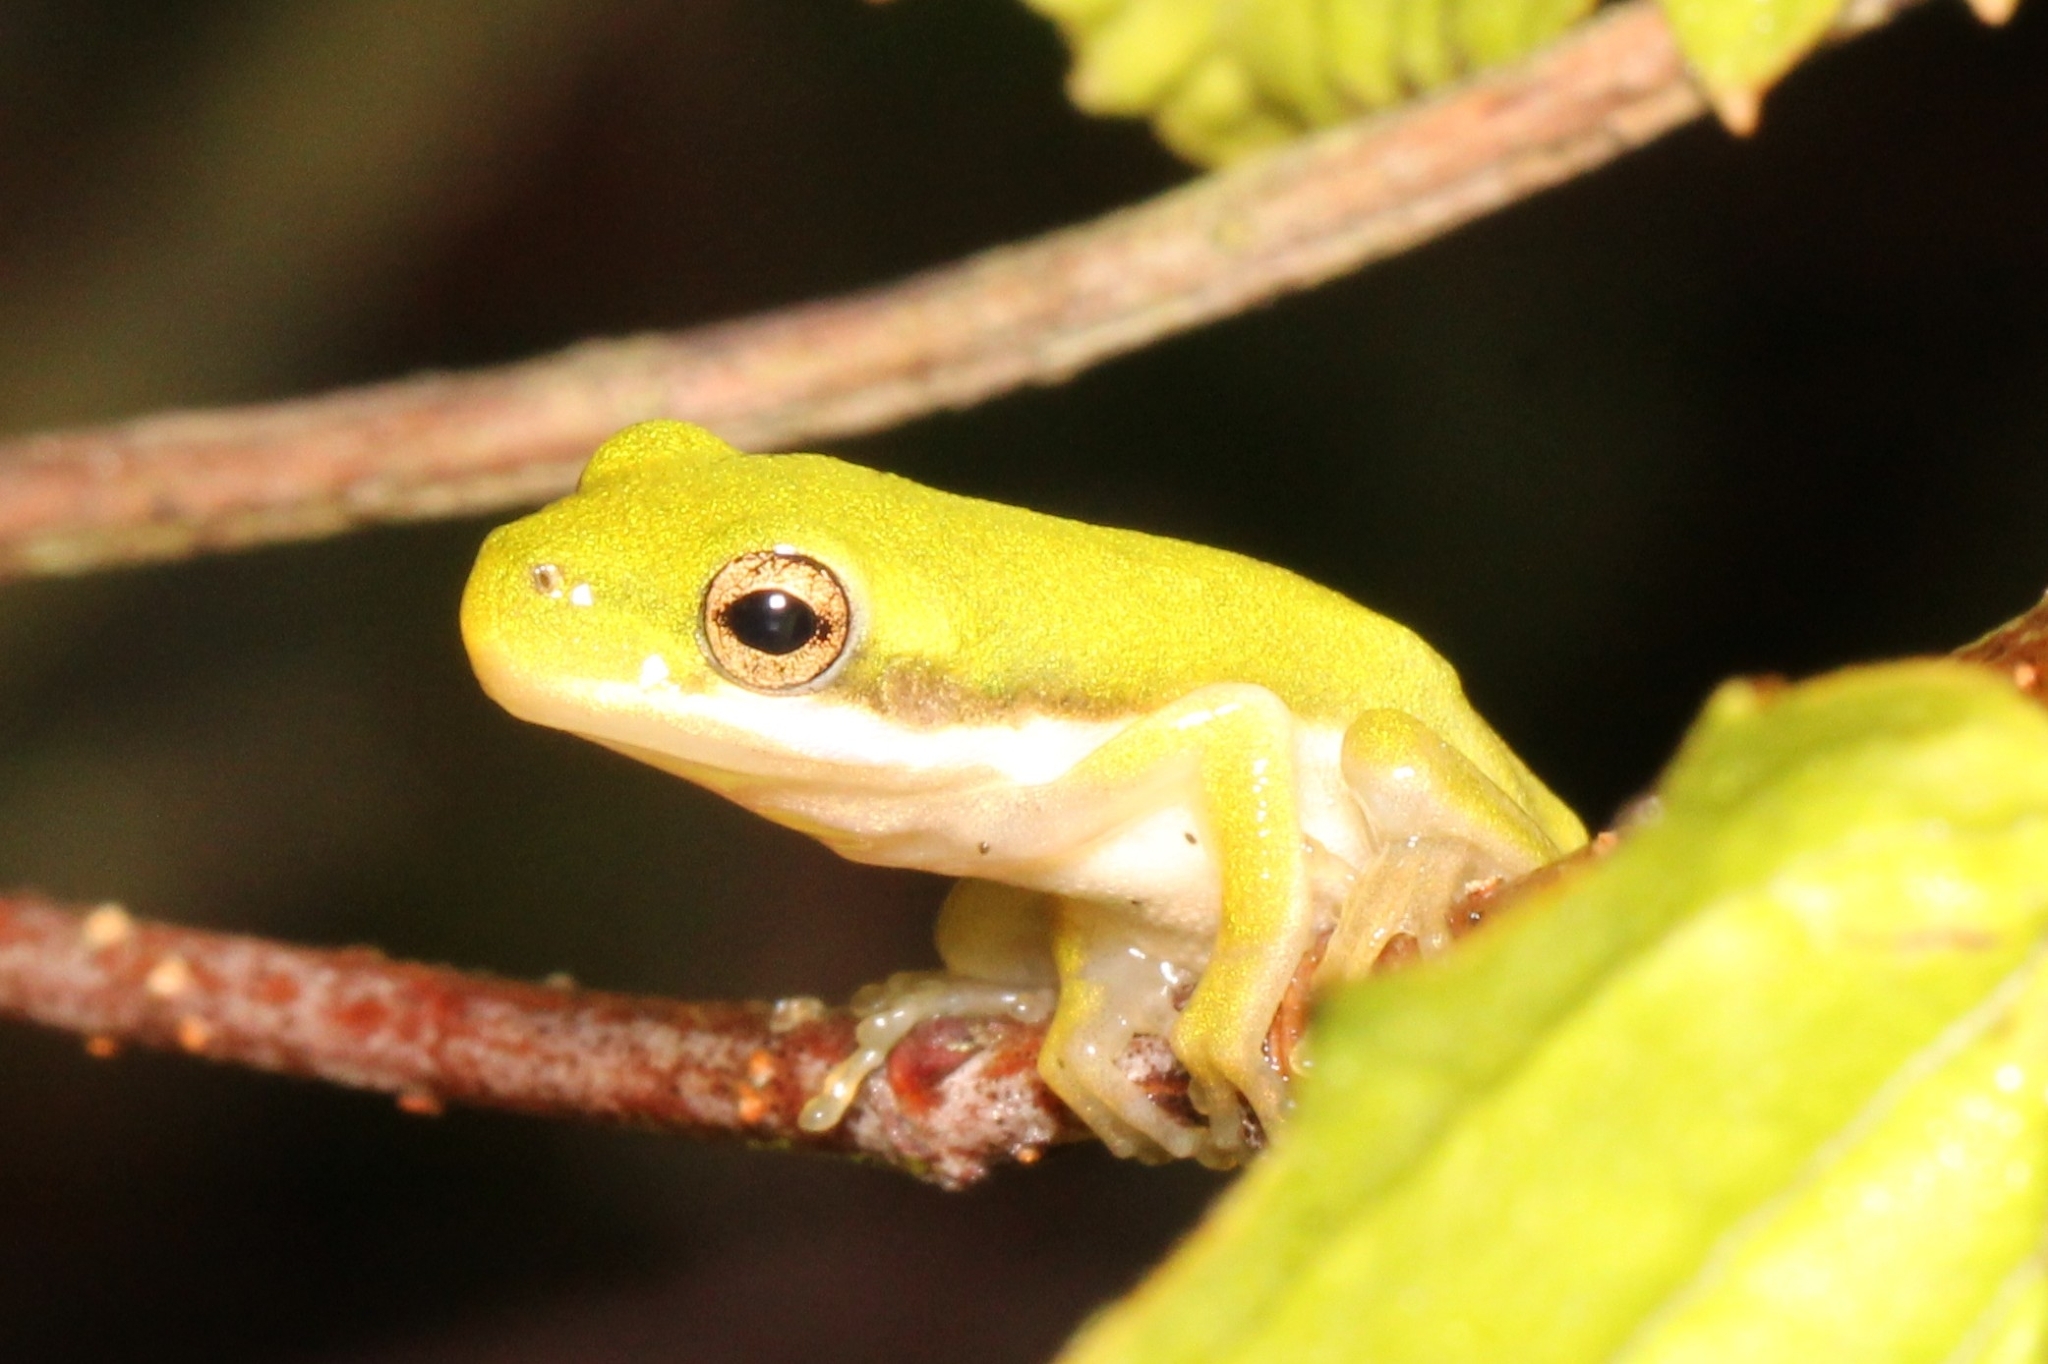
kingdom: Animalia
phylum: Chordata
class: Amphibia
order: Anura
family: Hylidae
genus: Dryophytes
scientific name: Dryophytes cinereus
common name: Green treefrog
